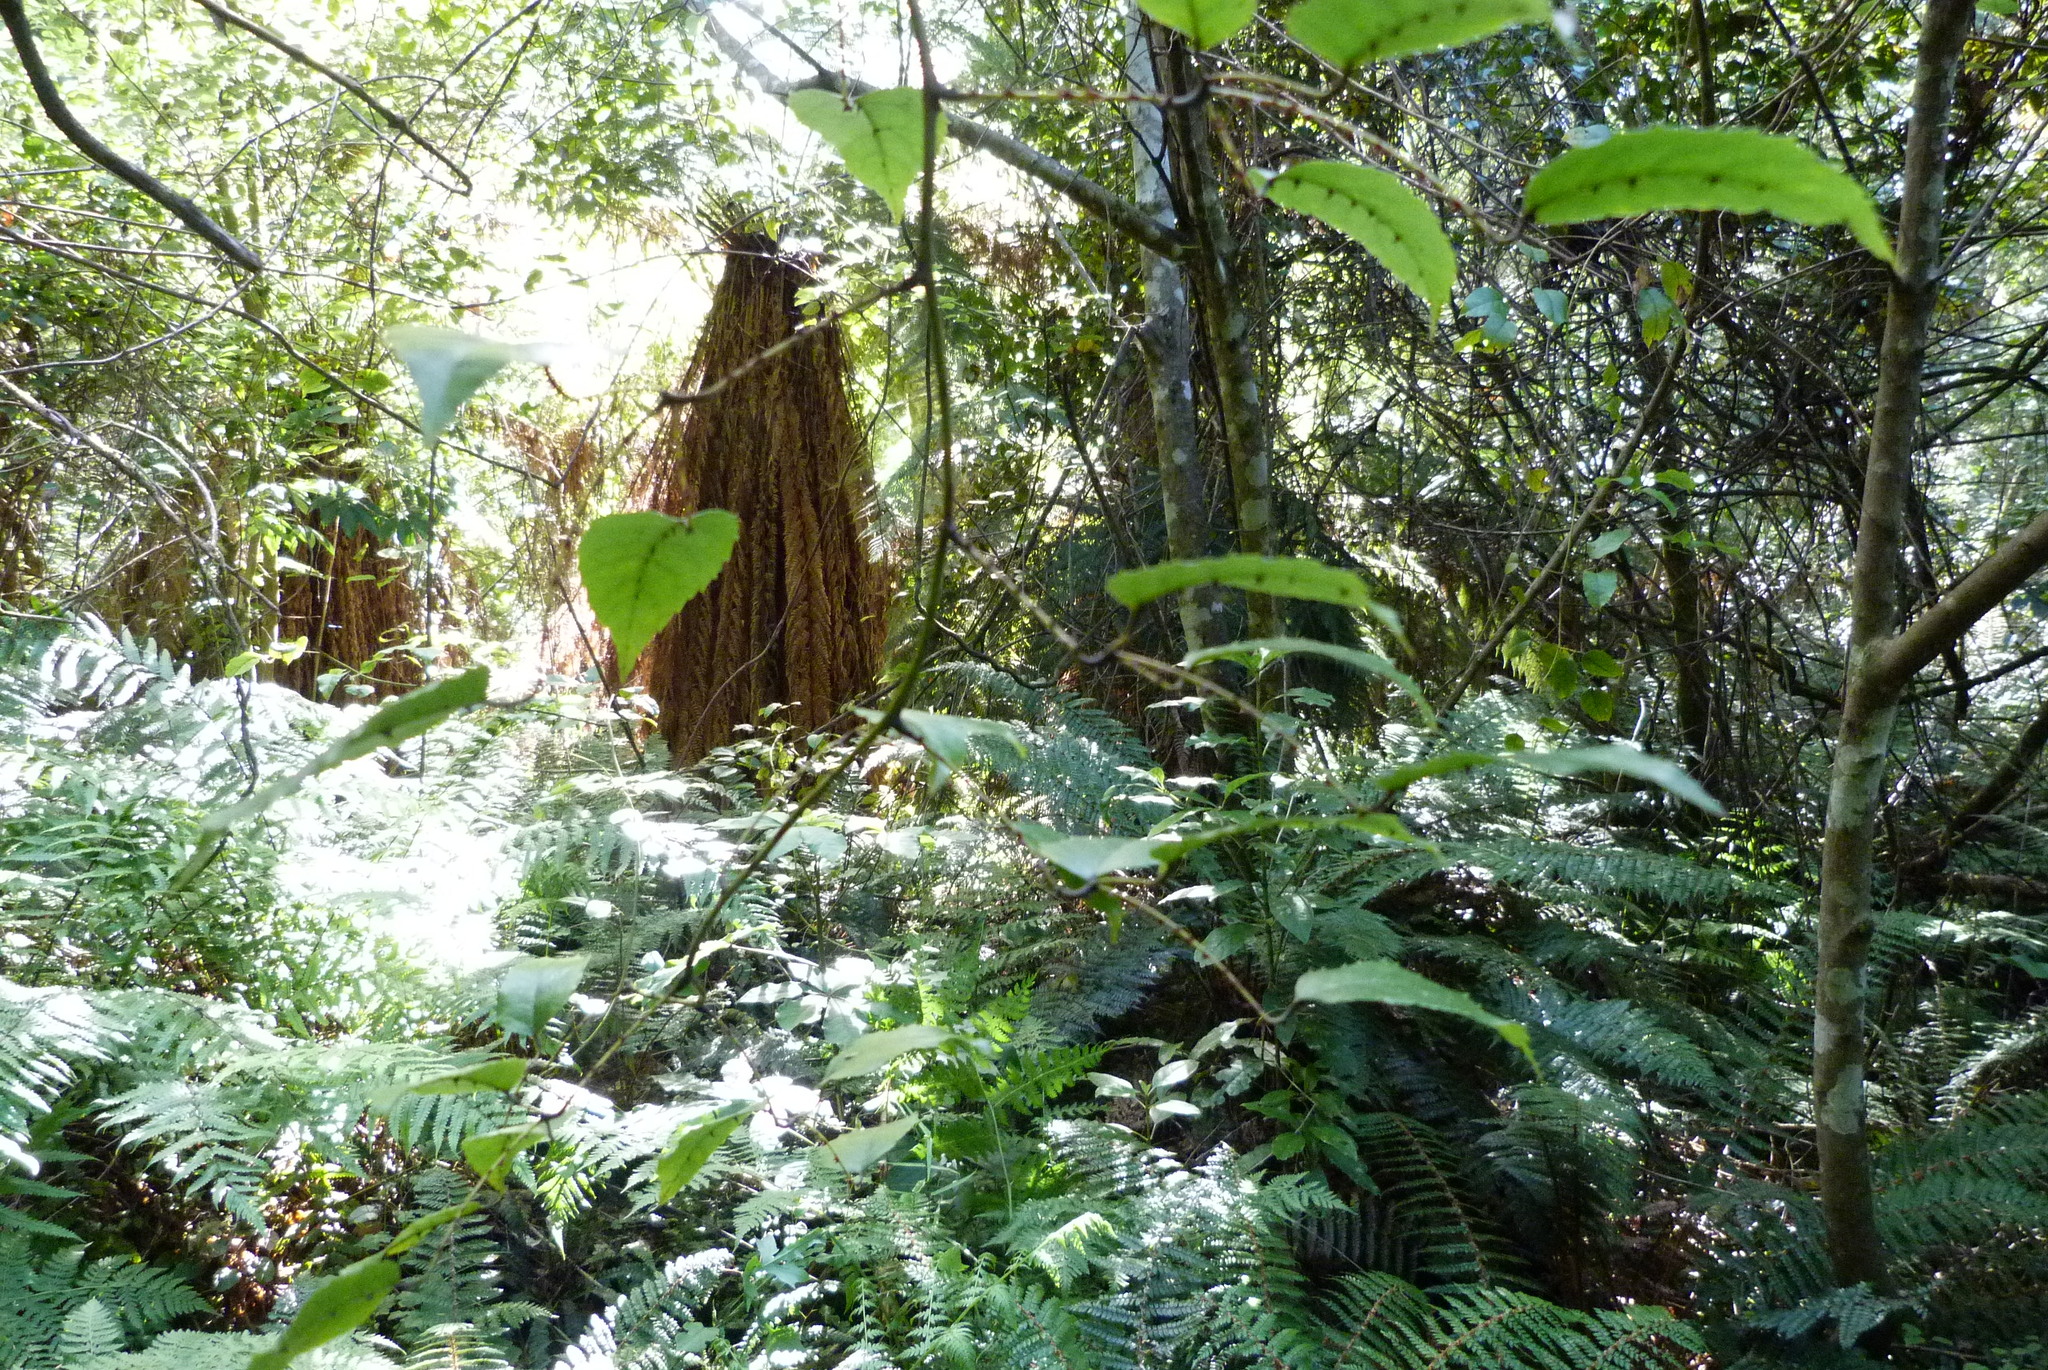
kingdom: Plantae
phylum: Tracheophyta
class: Magnoliopsida
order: Rosales
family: Rosaceae
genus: Rubus
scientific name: Rubus cissoides
